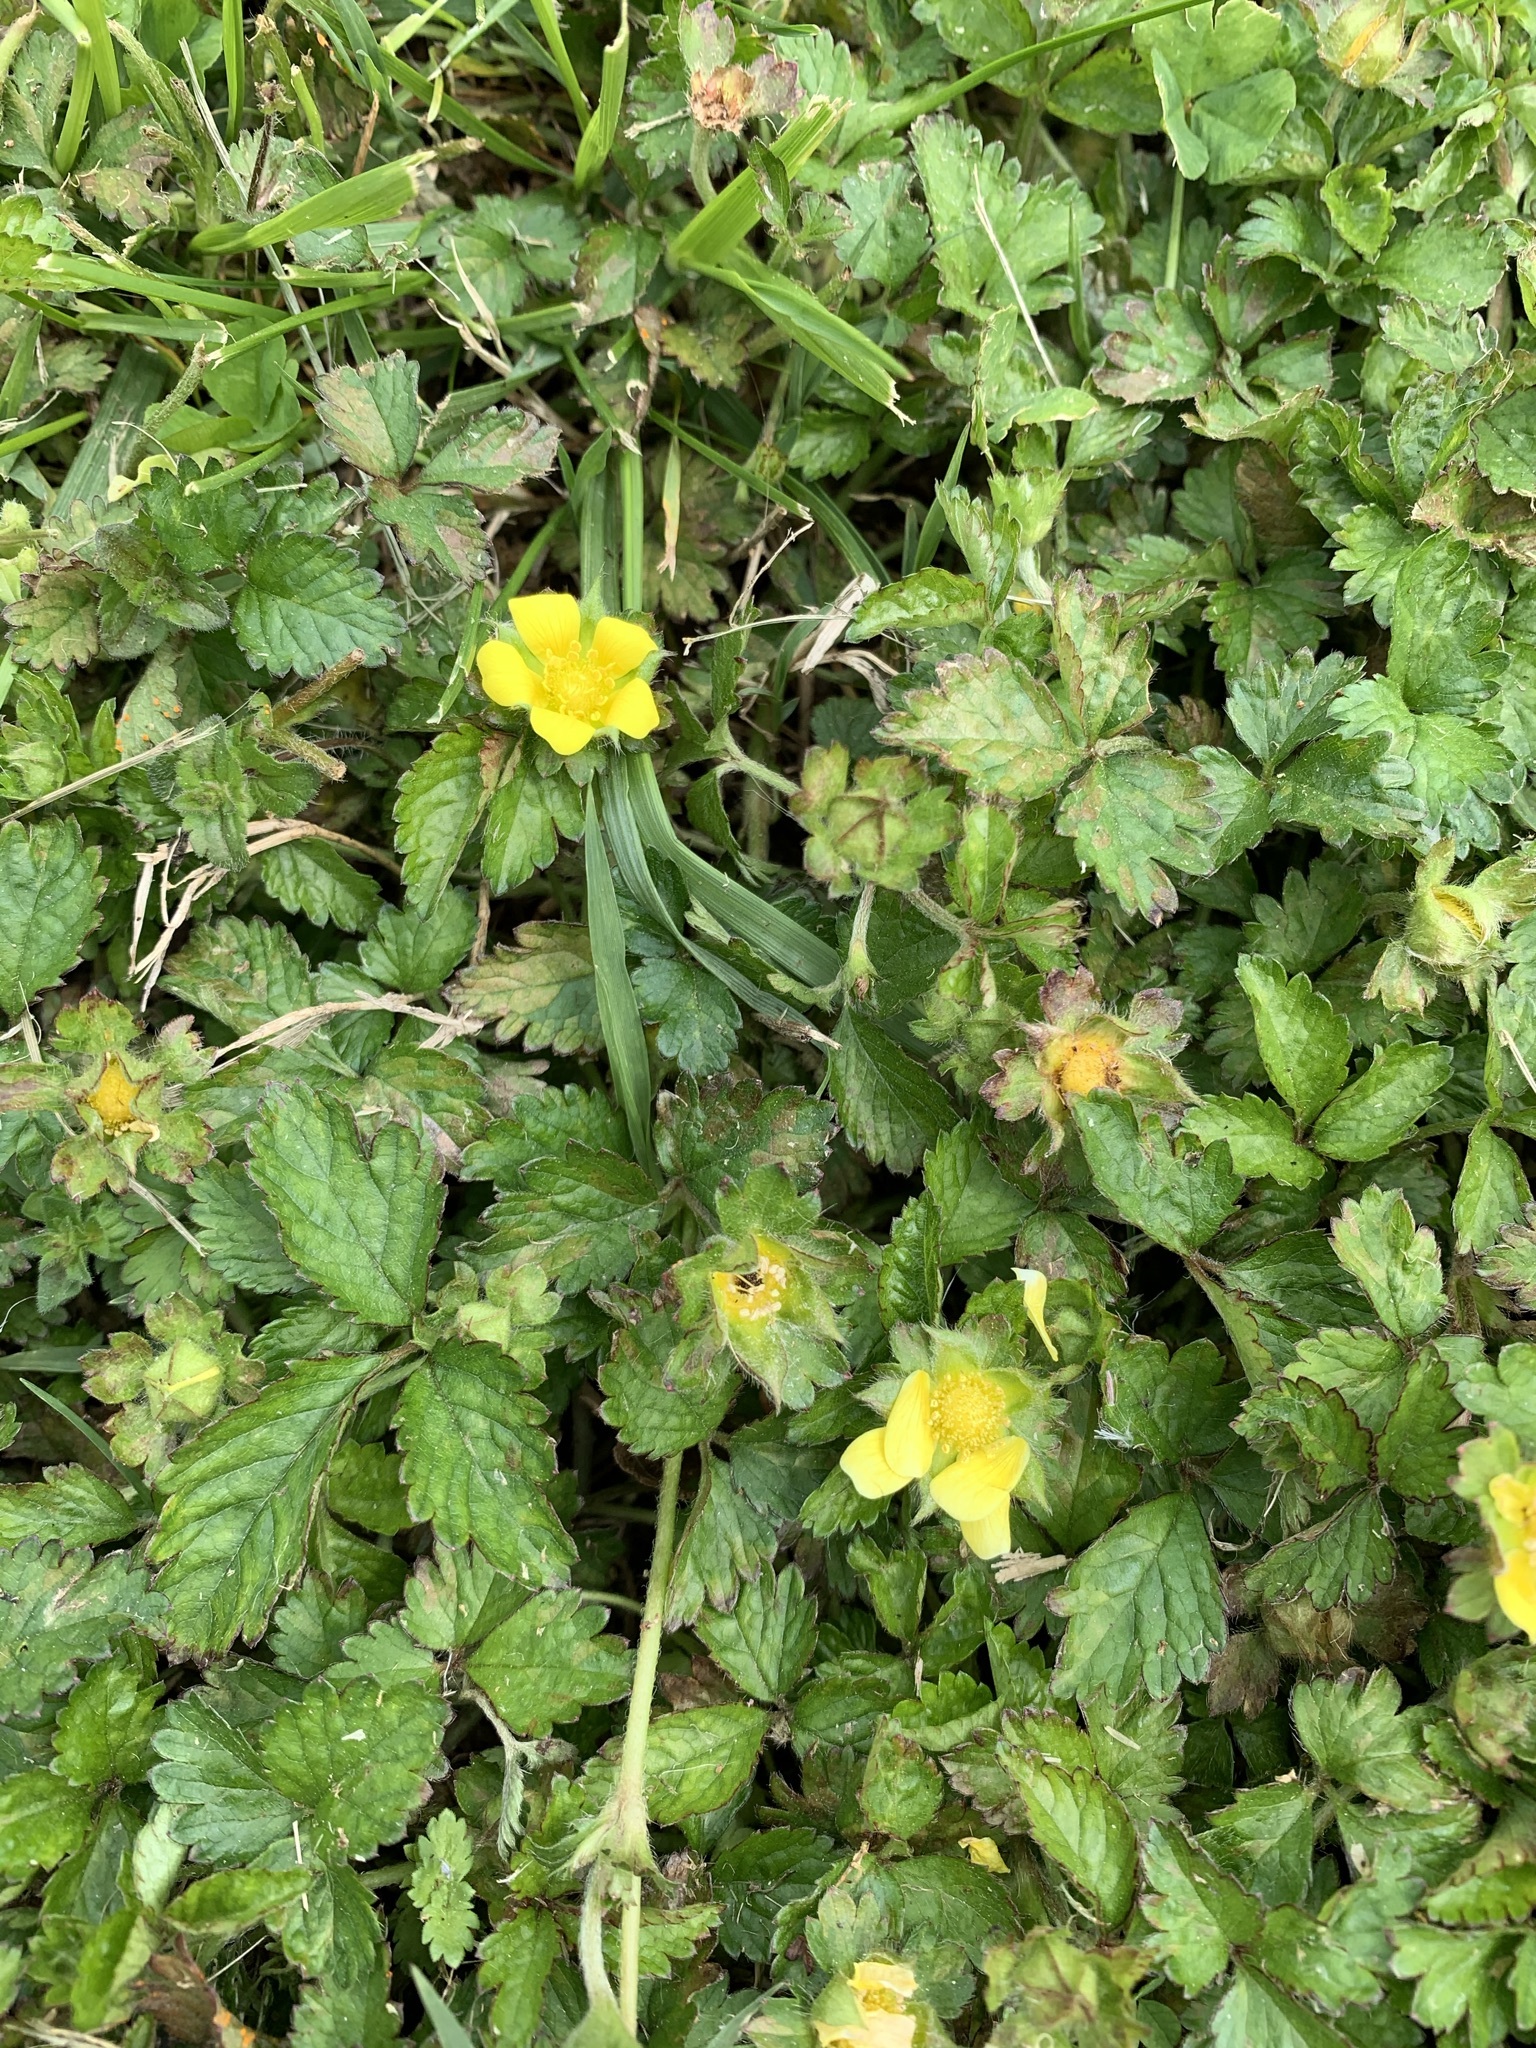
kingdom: Plantae
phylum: Tracheophyta
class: Magnoliopsida
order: Rosales
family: Rosaceae
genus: Potentilla
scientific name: Potentilla indica
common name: Yellow-flowered strawberry
